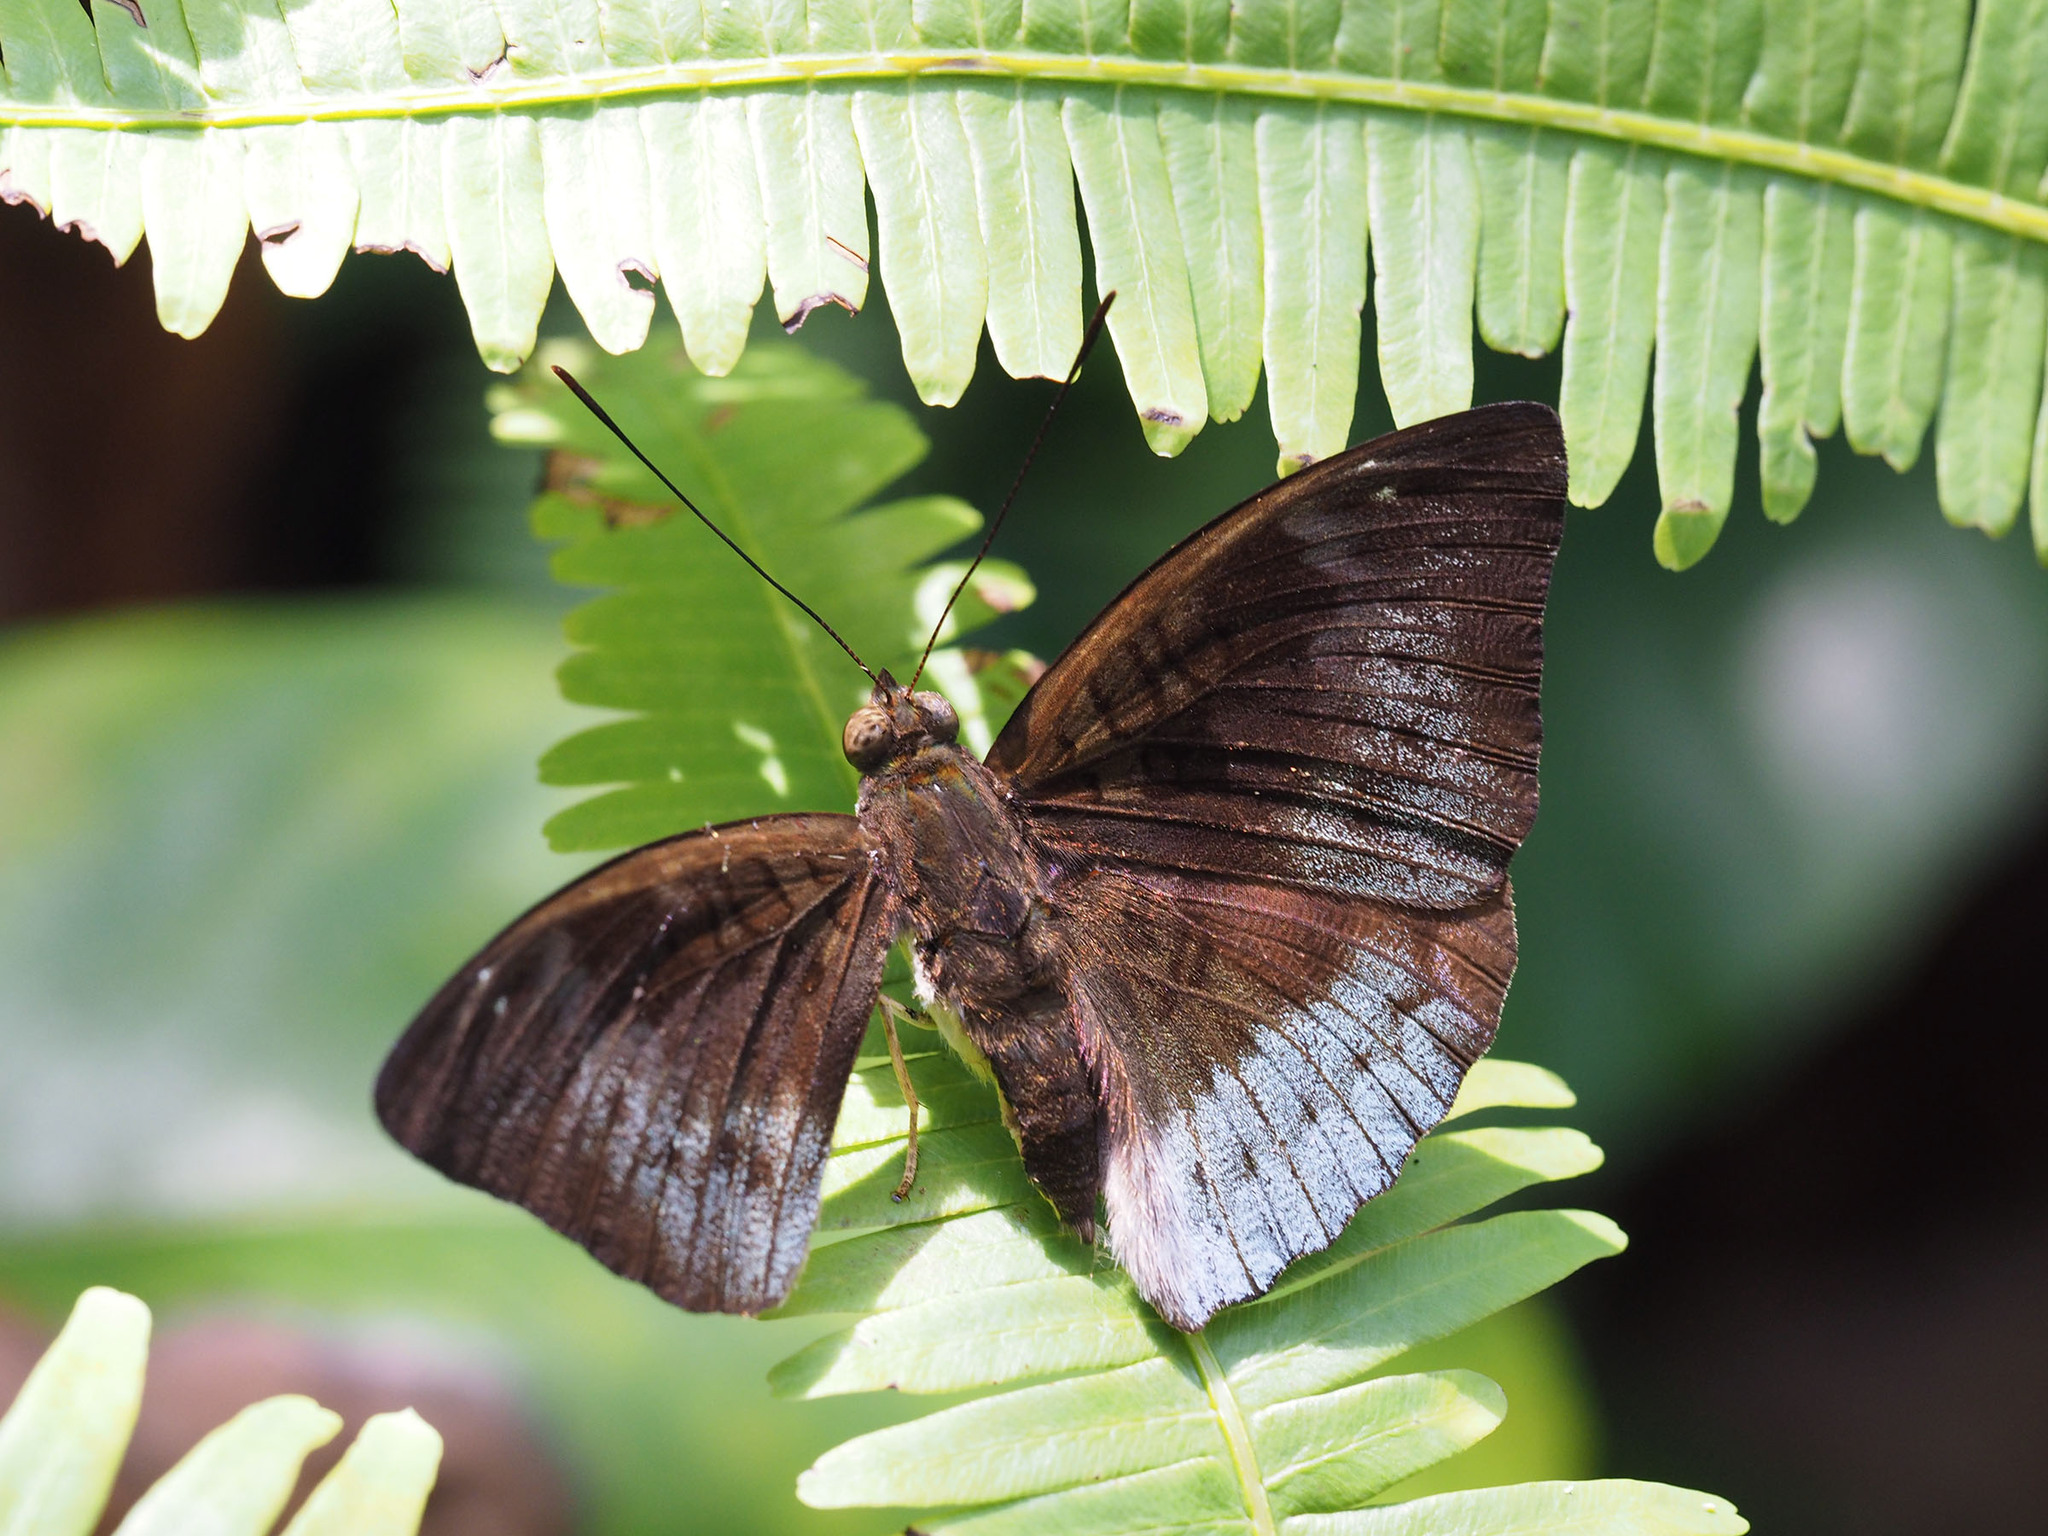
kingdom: Animalia
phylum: Arthropoda
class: Insecta
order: Lepidoptera
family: Nymphalidae
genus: Euthalia
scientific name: Euthalia monina
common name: Powdered baron
